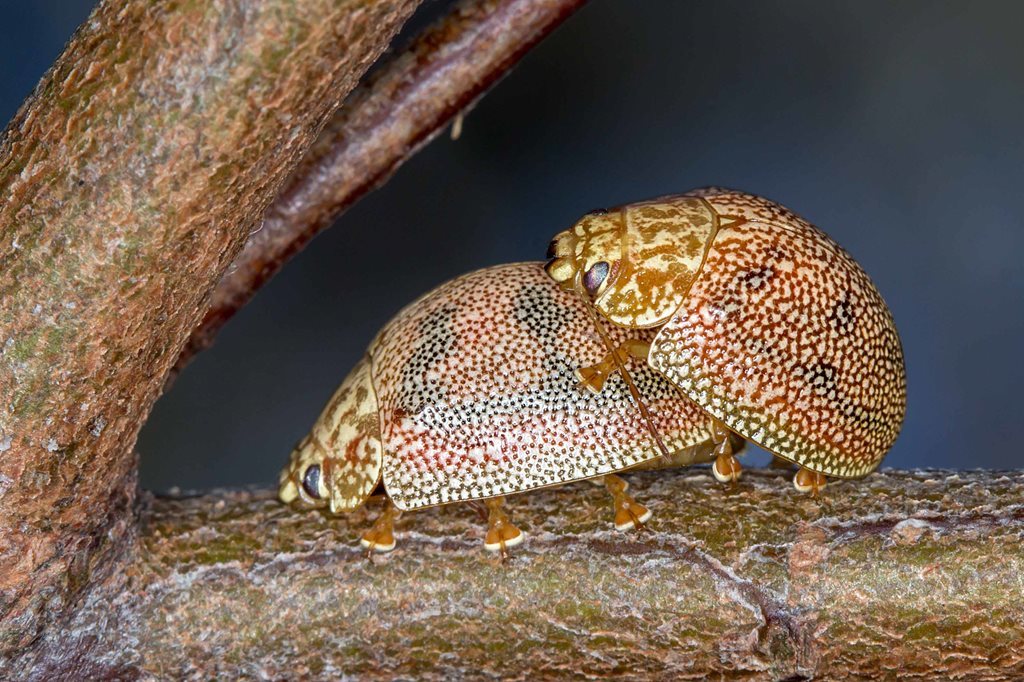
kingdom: Animalia
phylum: Arthropoda
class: Insecta
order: Coleoptera
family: Chrysomelidae
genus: Paropsis
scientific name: Paropsis
